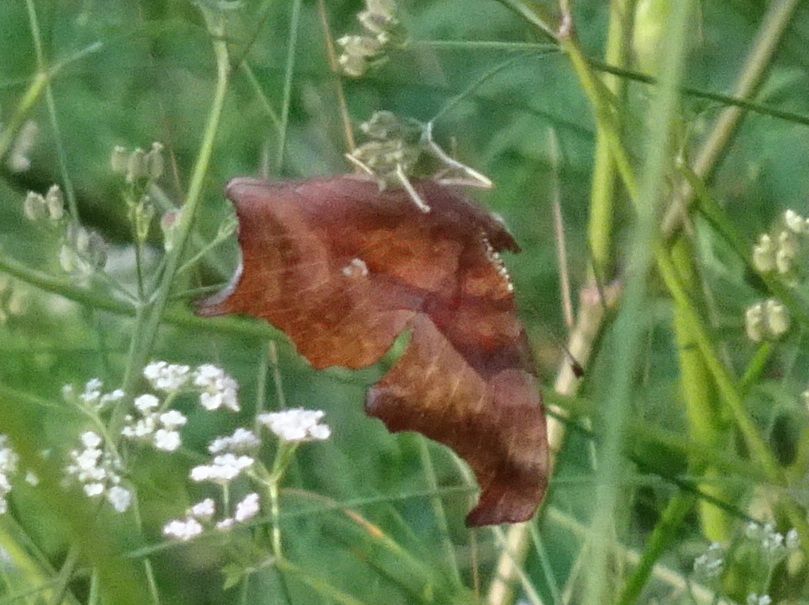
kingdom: Animalia
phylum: Arthropoda
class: Insecta
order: Lepidoptera
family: Nymphalidae
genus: Polygonia
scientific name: Polygonia interrogationis
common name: Question mark
